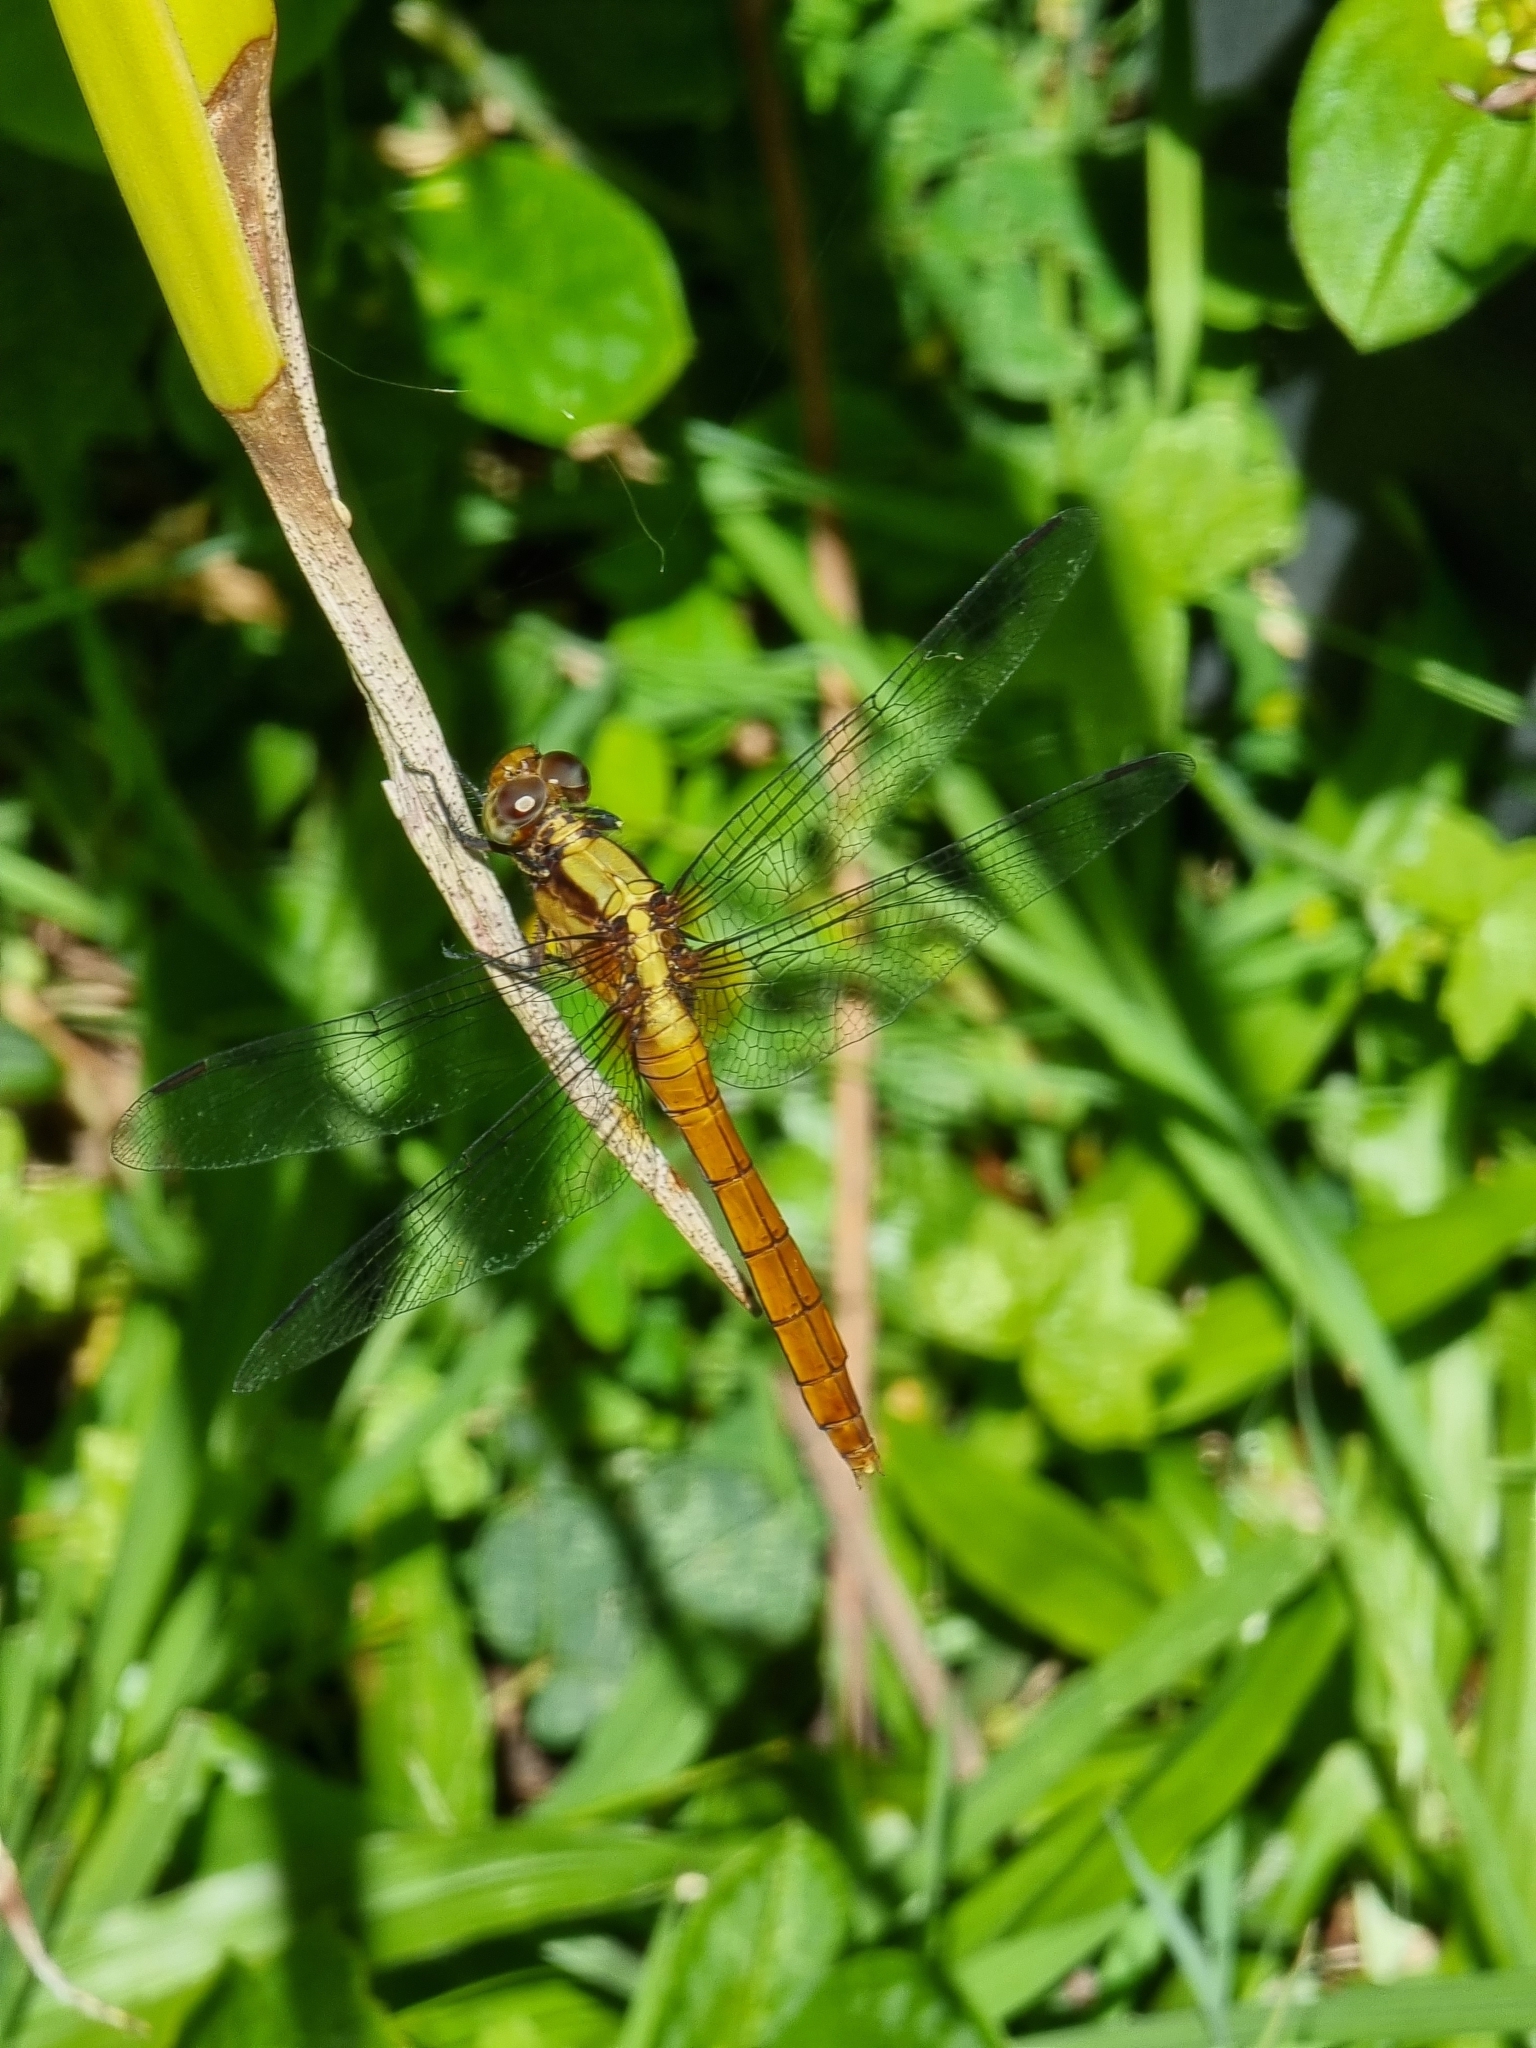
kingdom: Animalia
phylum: Arthropoda
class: Insecta
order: Odonata
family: Libellulidae
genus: Orthetrum
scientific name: Orthetrum villosovittatum
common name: Firery skimmer
